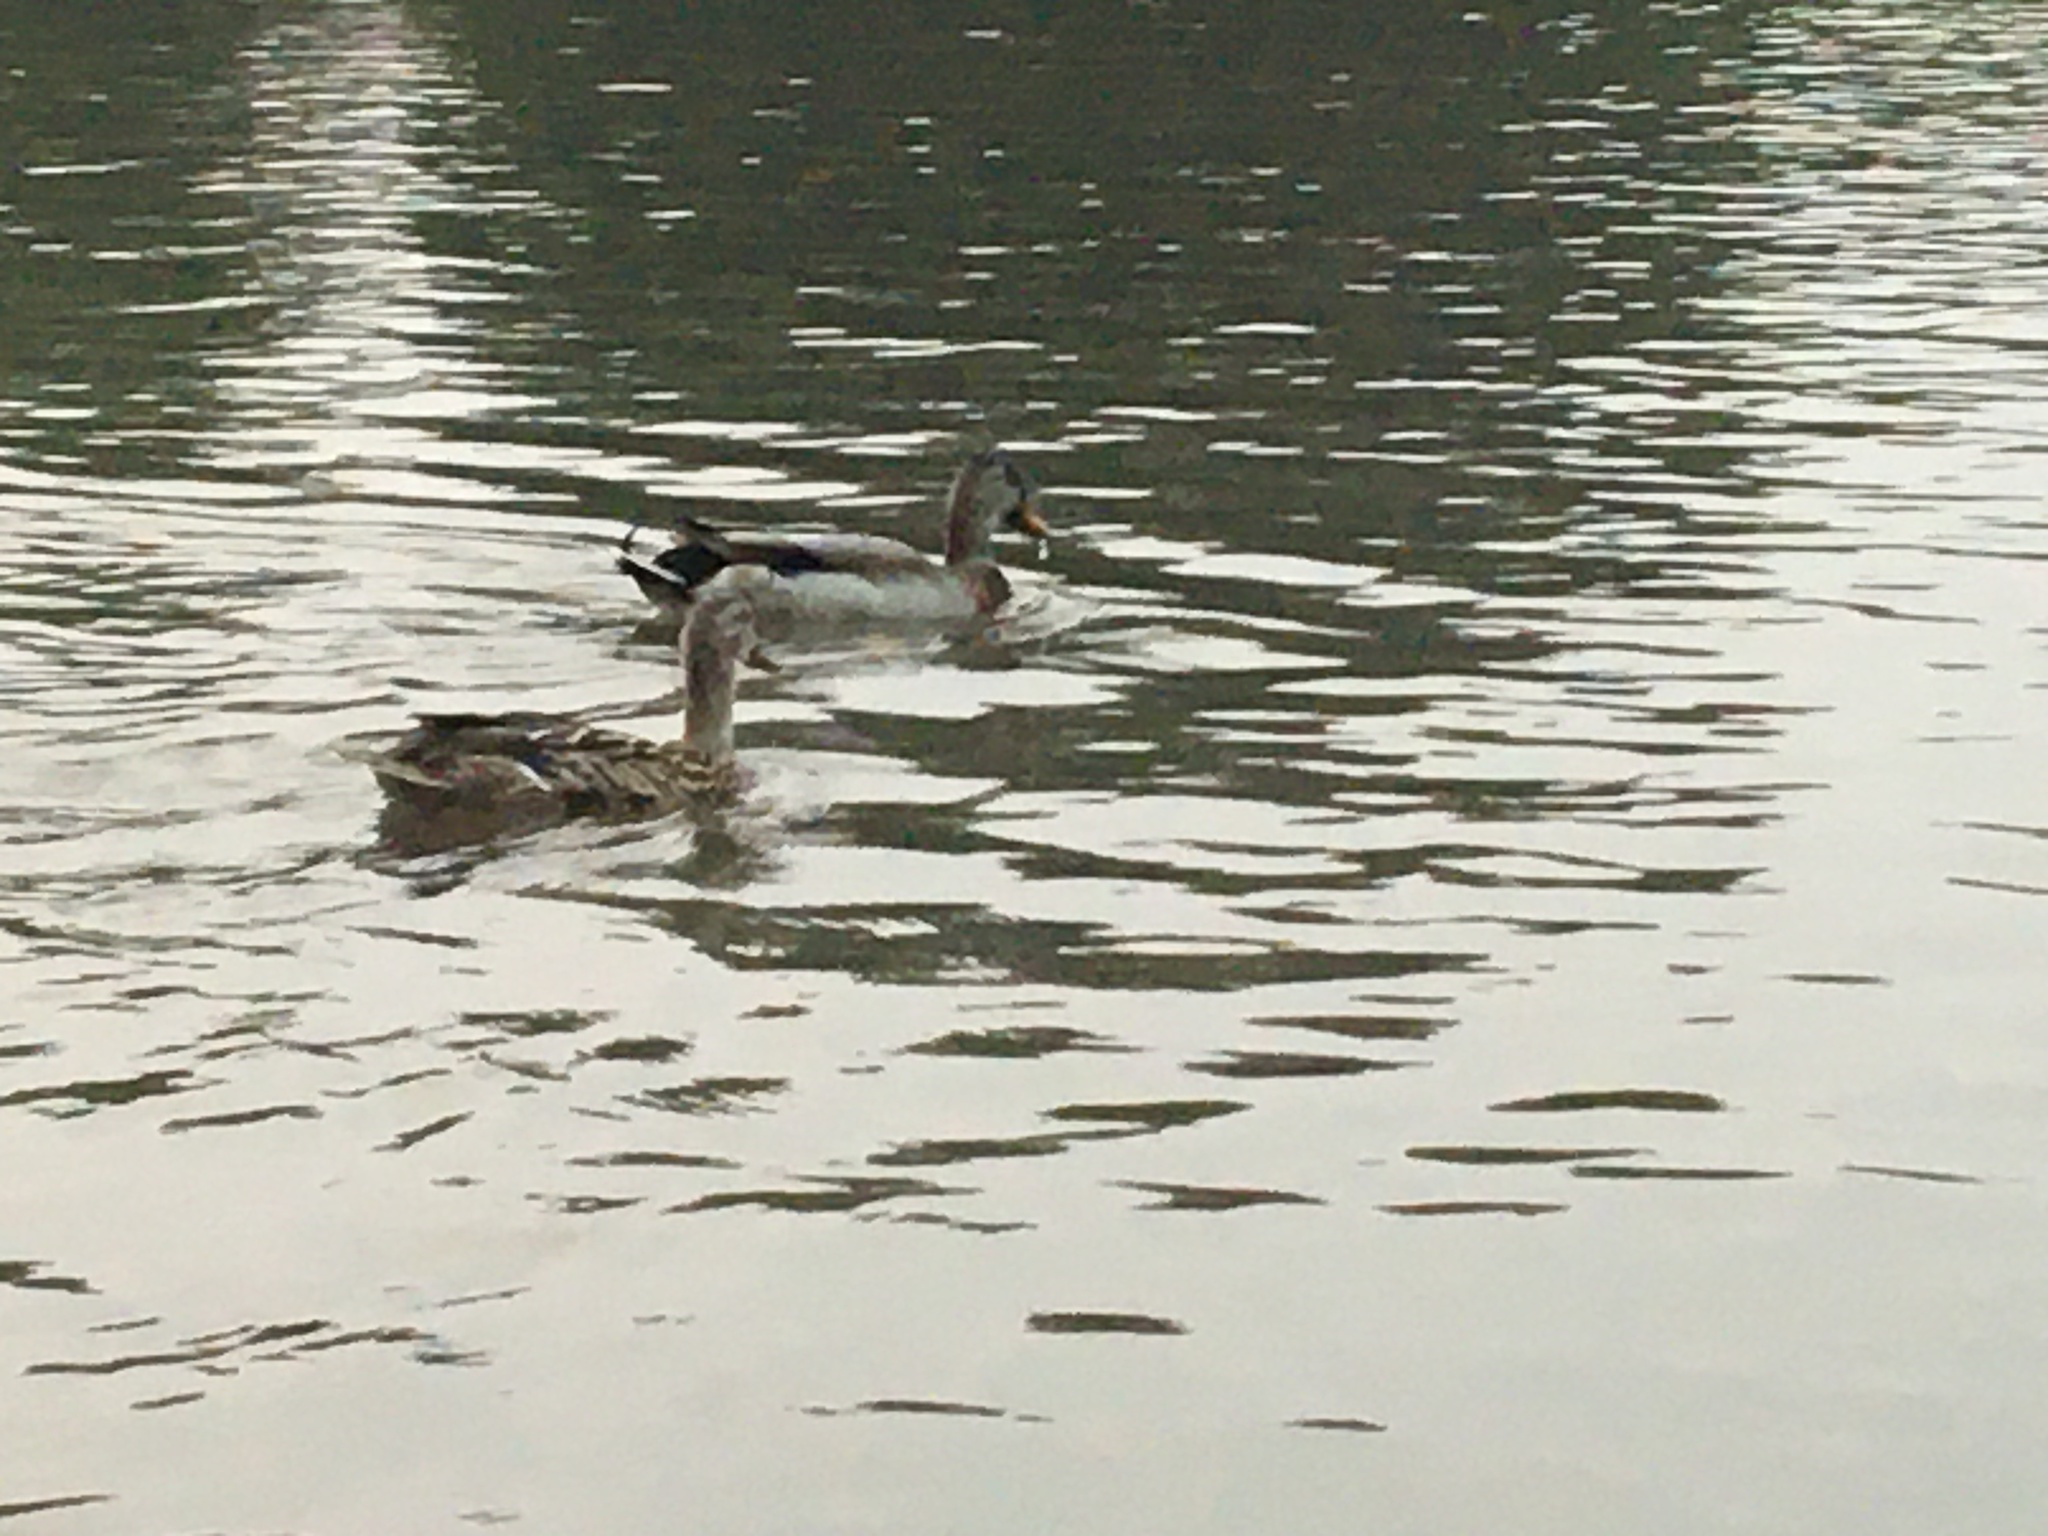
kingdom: Animalia
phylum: Chordata
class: Aves
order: Anseriformes
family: Anatidae
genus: Anas
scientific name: Anas platyrhynchos
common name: Mallard
